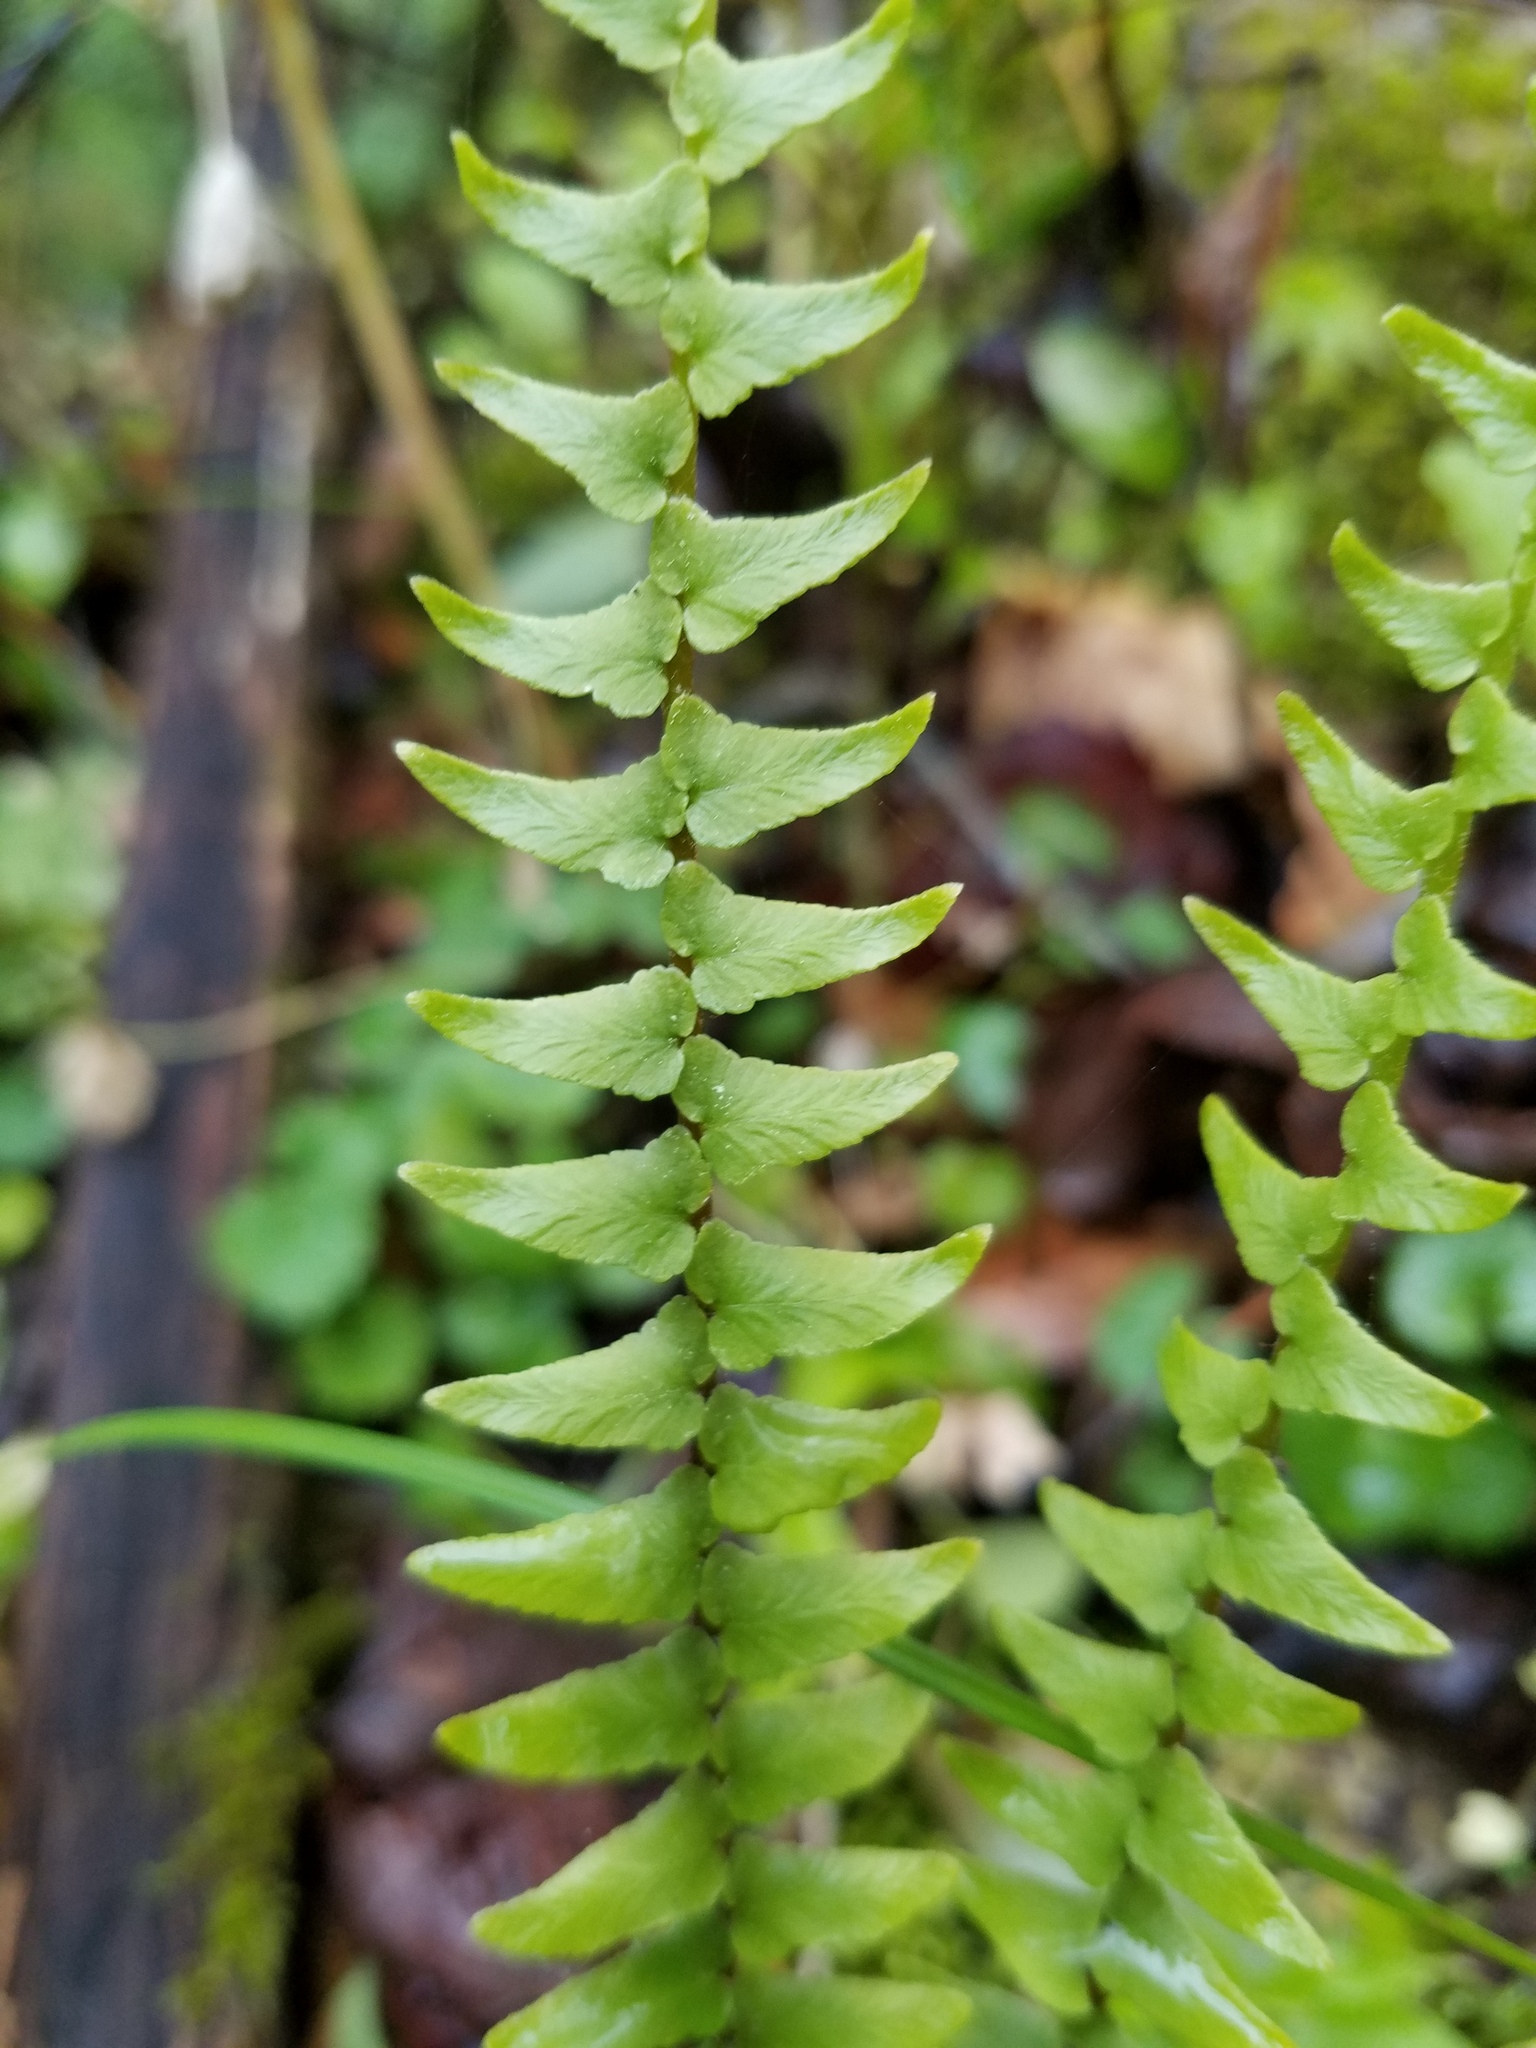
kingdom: Plantae
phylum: Tracheophyta
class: Polypodiopsida
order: Polypodiales
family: Aspleniaceae
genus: Asplenium
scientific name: Asplenium platyneuron
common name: Ebony spleenwort
